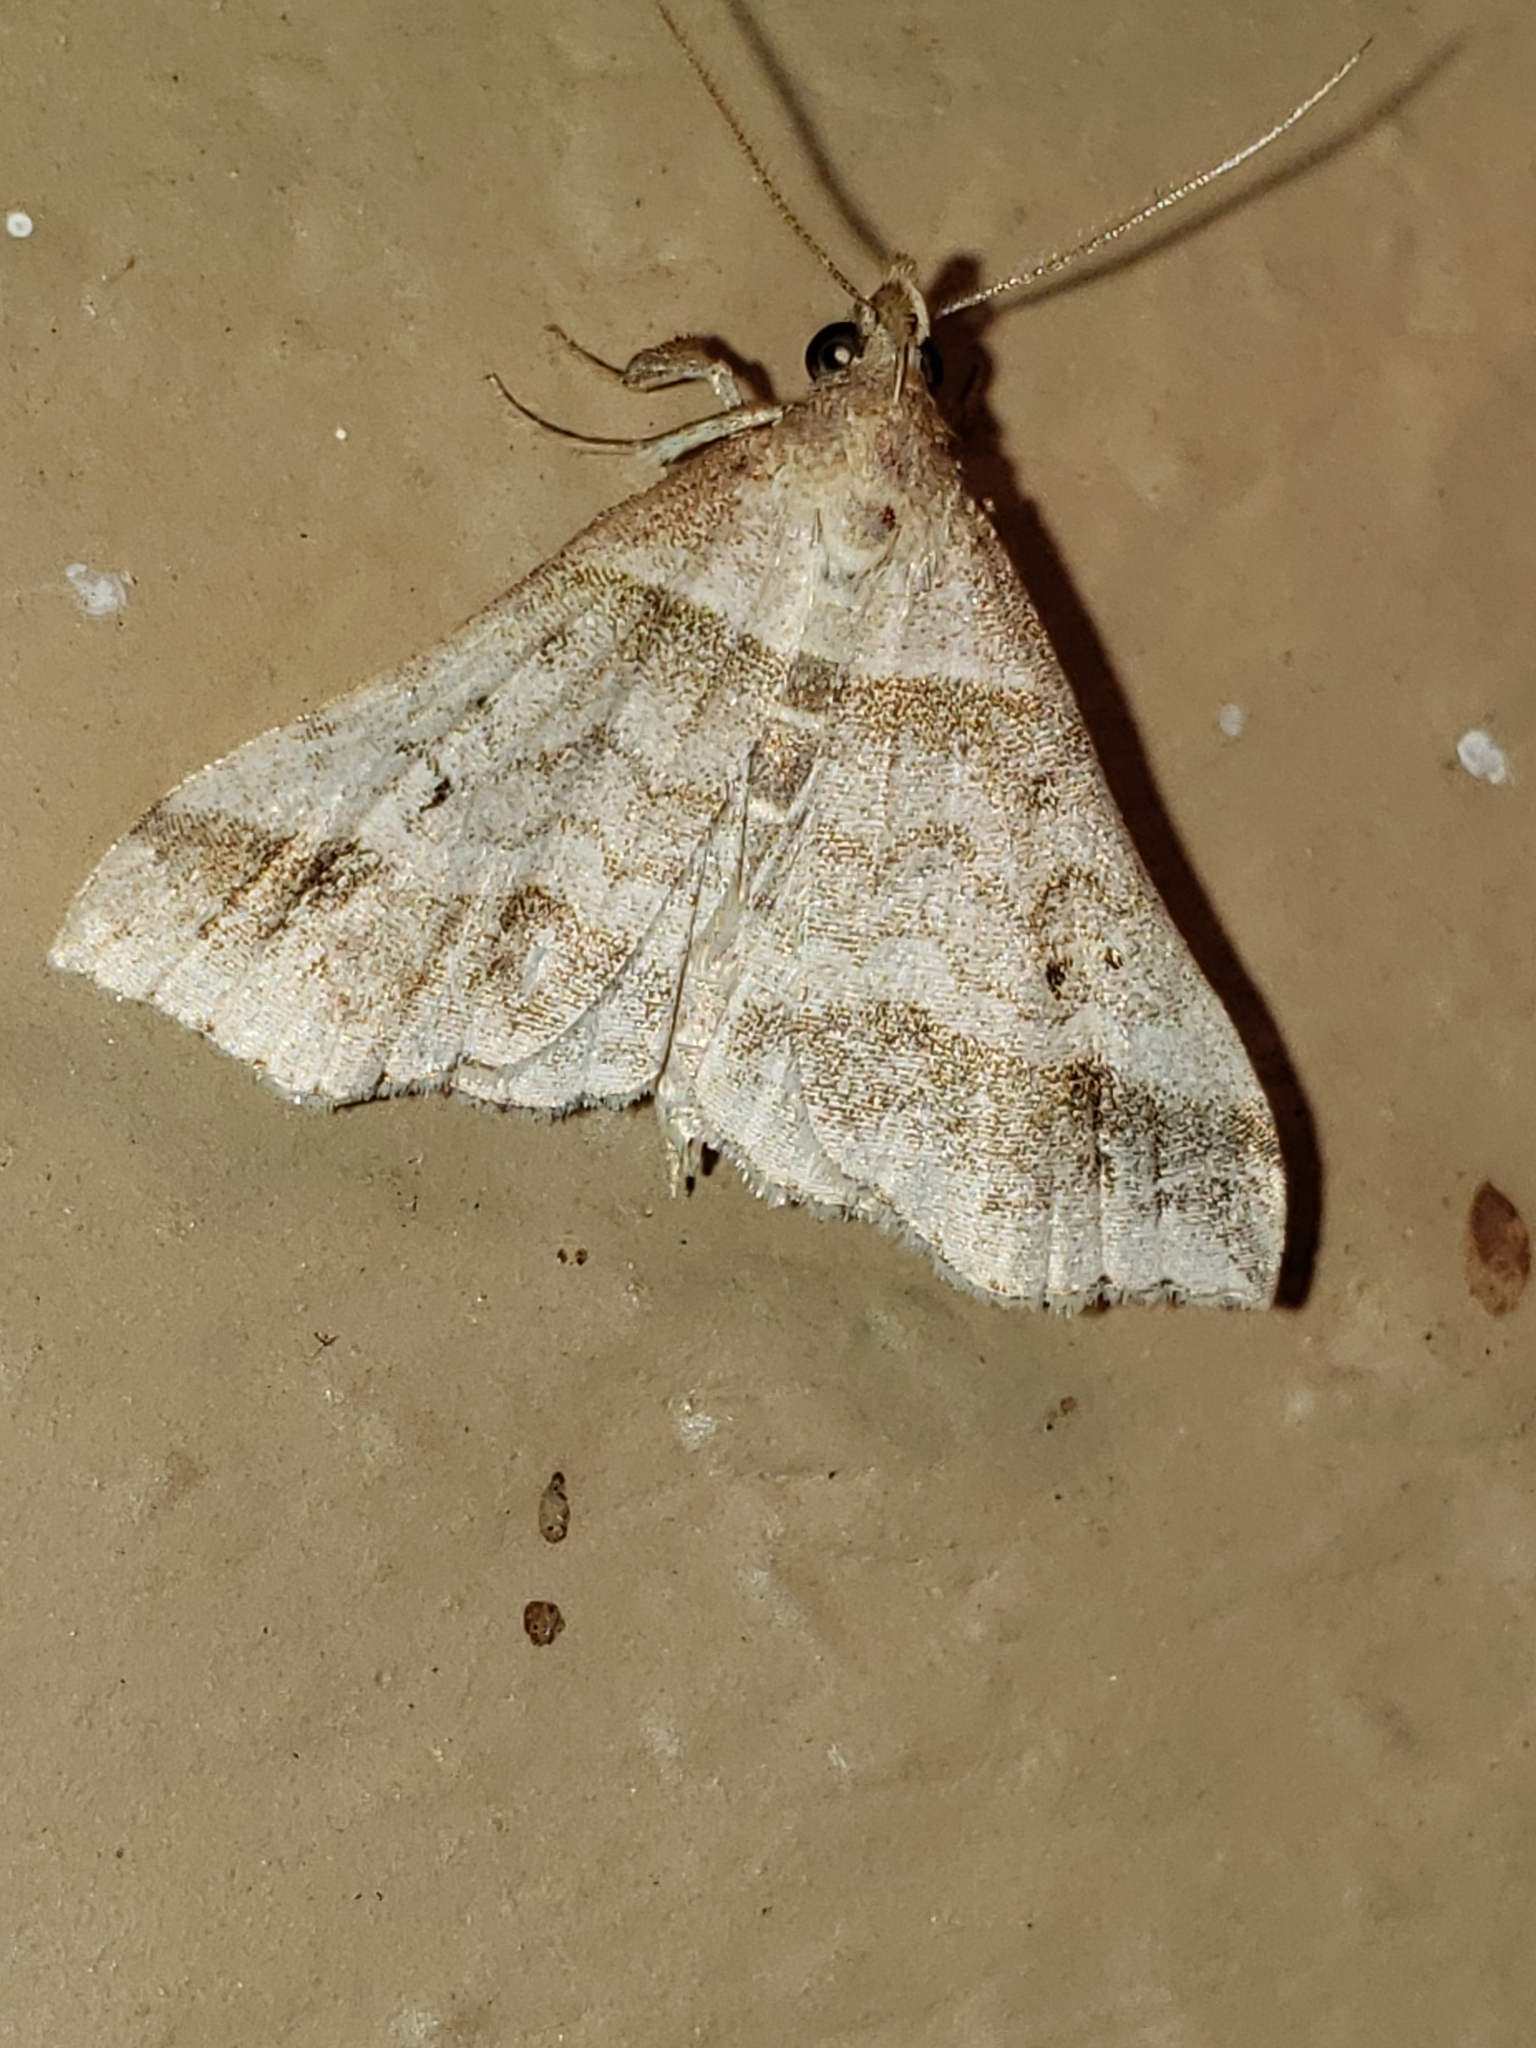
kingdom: Animalia
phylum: Arthropoda
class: Insecta
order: Lepidoptera
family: Erebidae
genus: Phaeolita
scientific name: Phaeolita pyramusalis
